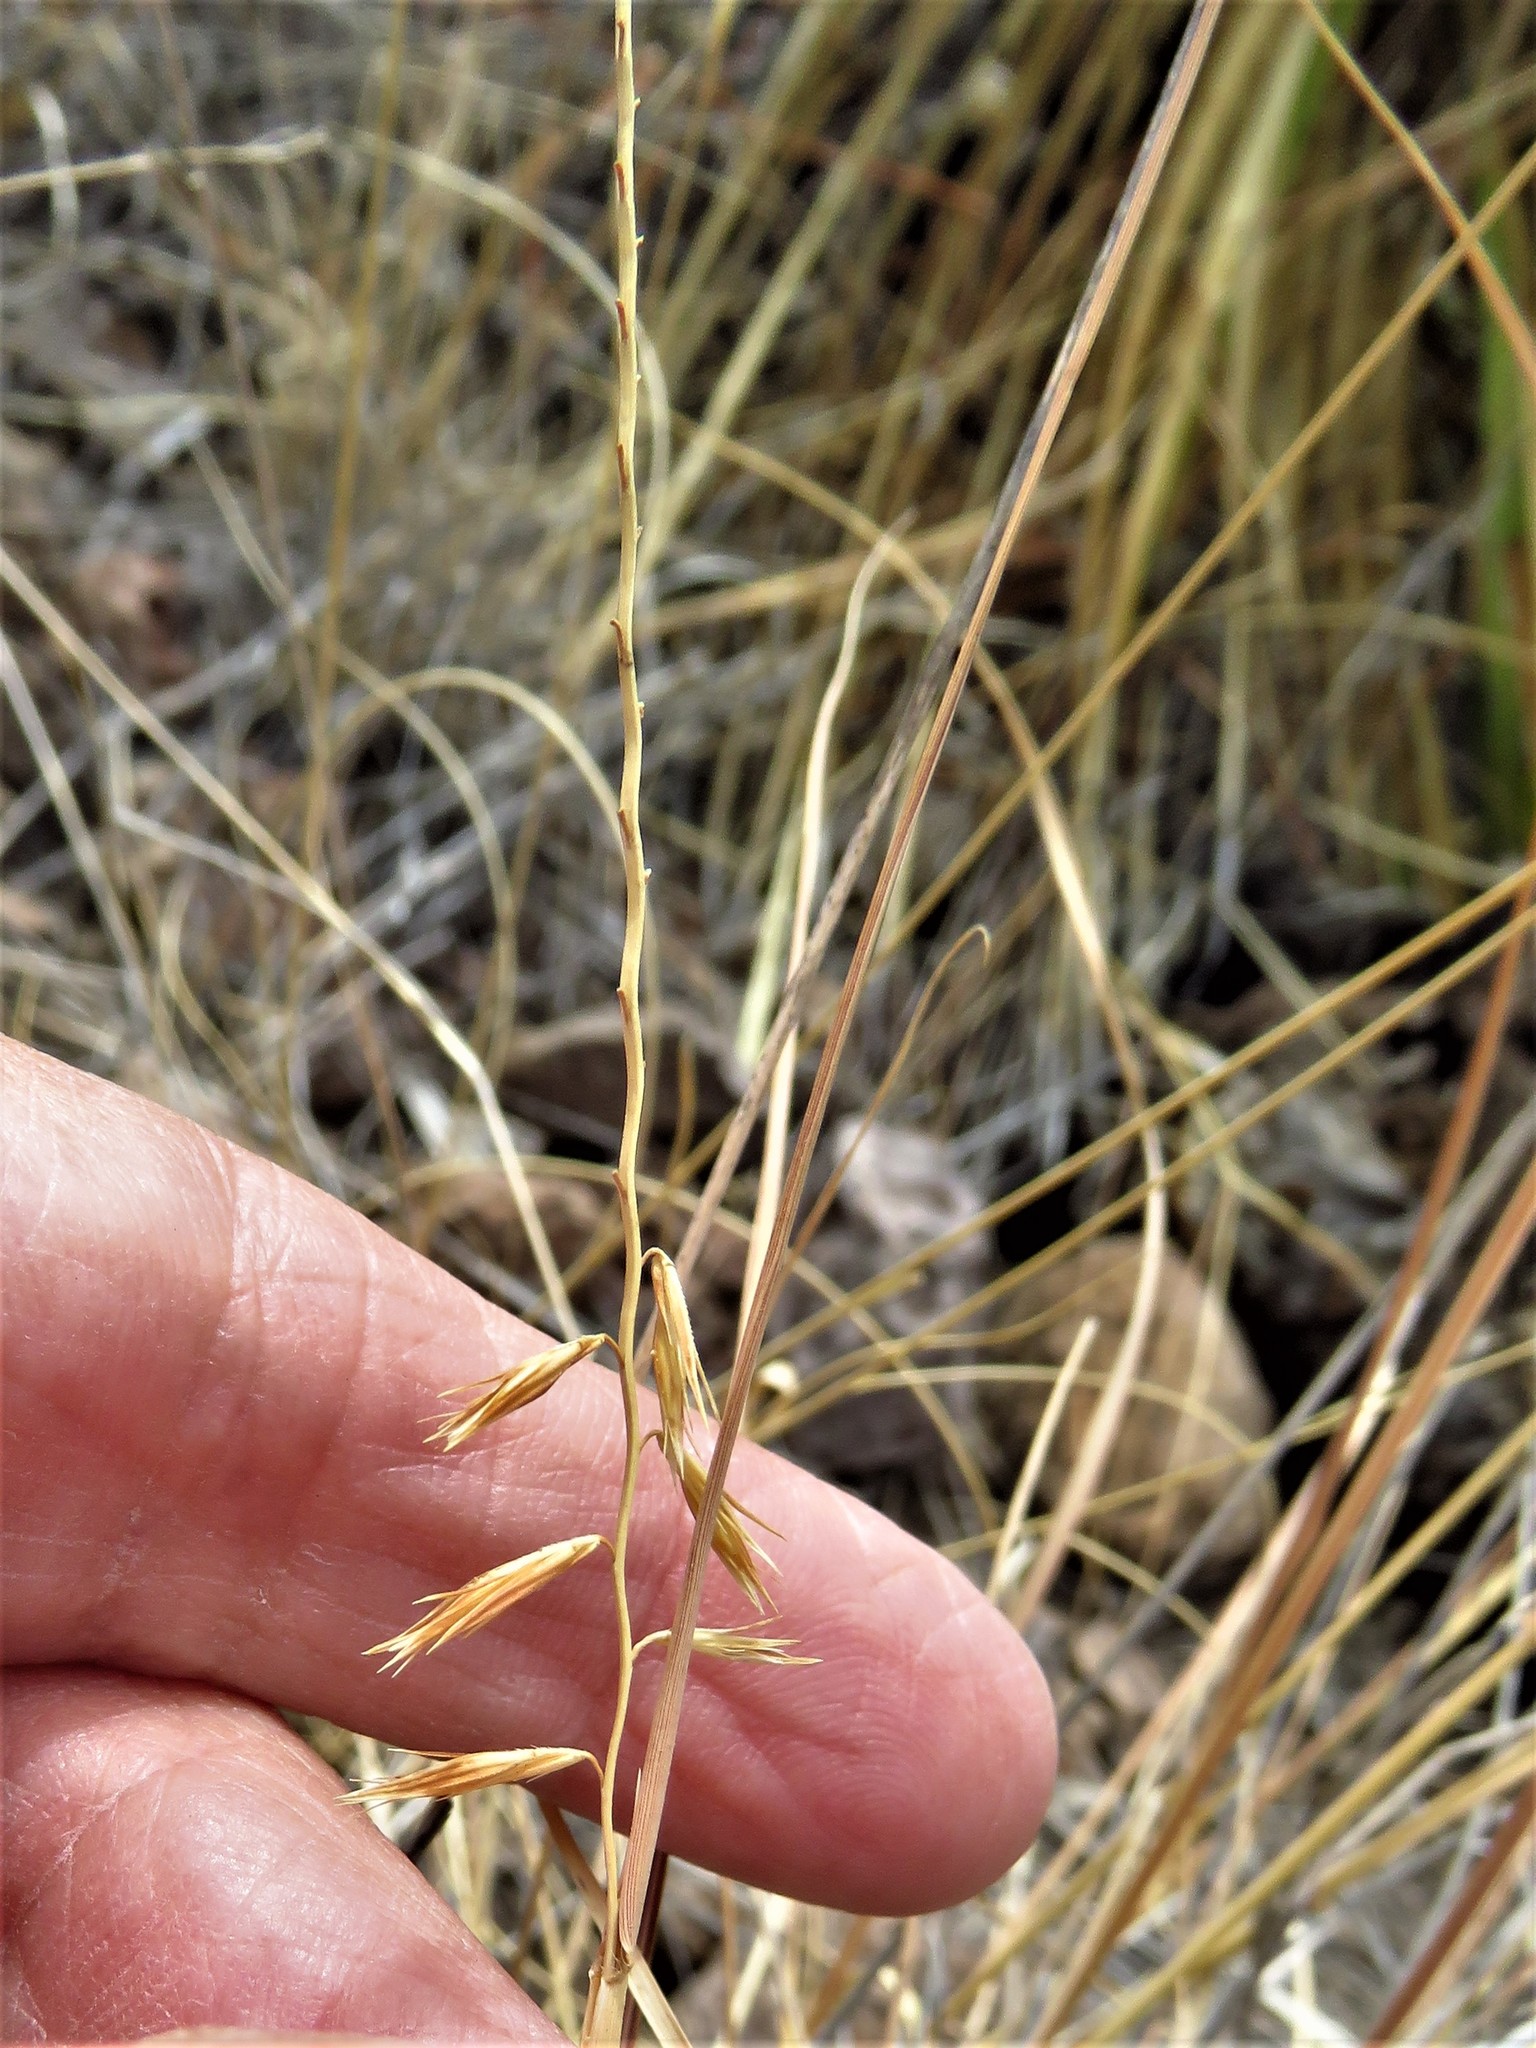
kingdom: Plantae
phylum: Tracheophyta
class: Liliopsida
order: Poales
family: Poaceae
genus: Bouteloua
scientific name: Bouteloua curtipendula
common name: Side-oats grama
